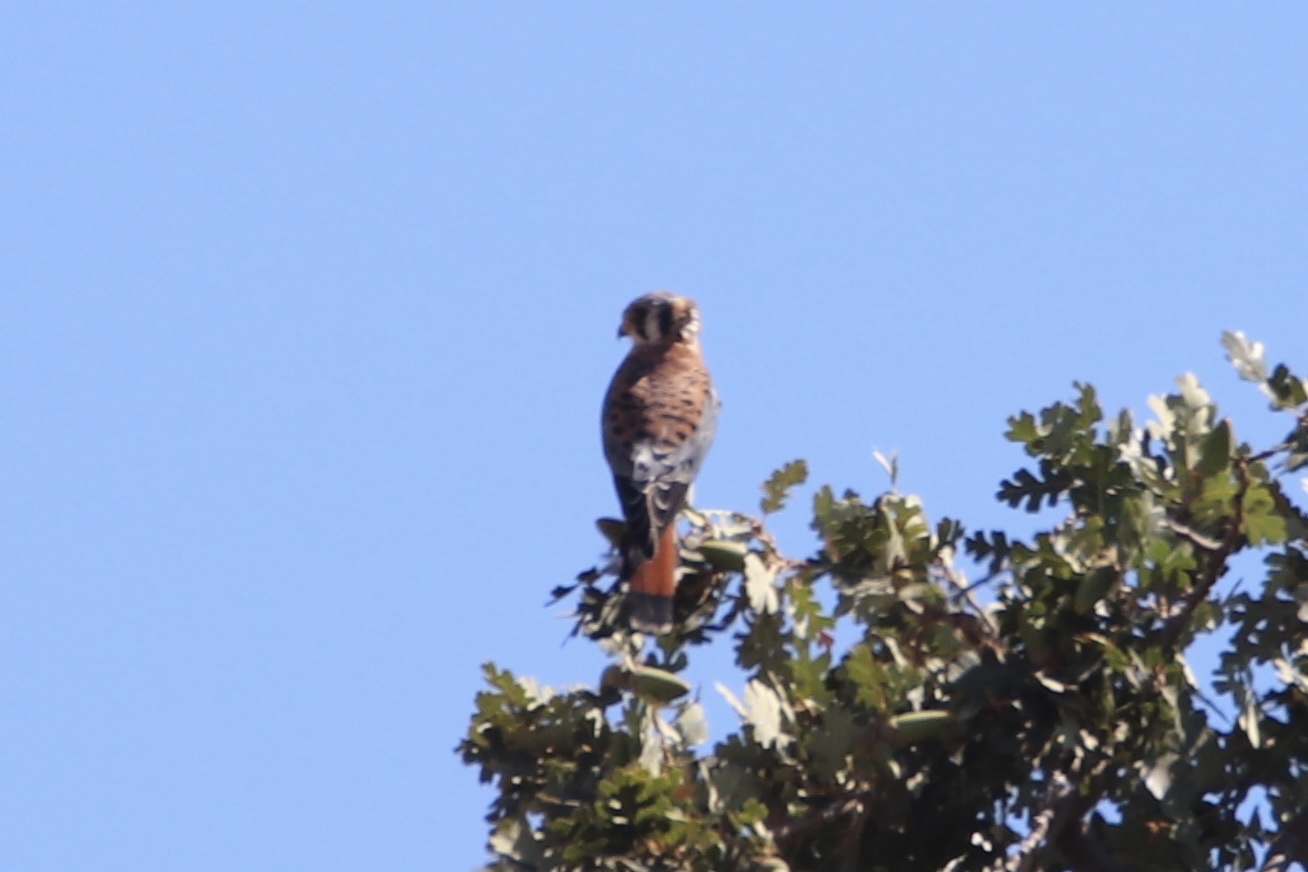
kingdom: Animalia
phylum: Chordata
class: Aves
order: Falconiformes
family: Falconidae
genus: Falco
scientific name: Falco sparverius
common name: American kestrel
